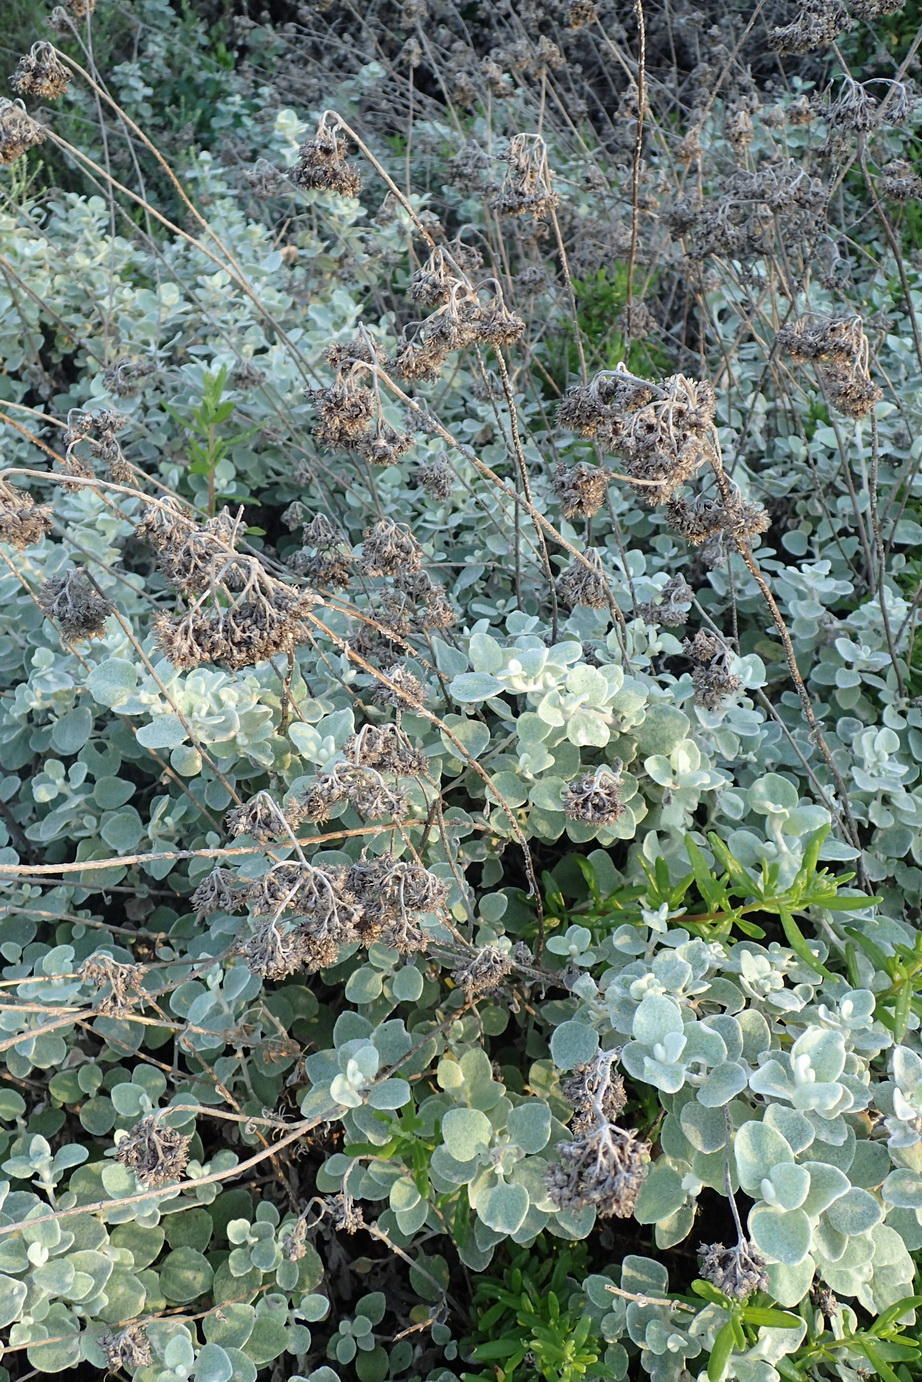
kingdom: Plantae
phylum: Tracheophyta
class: Magnoliopsida
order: Asterales
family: Asteraceae
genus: Helichrysum
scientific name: Helichrysum petiolare
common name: Licorice-plant
